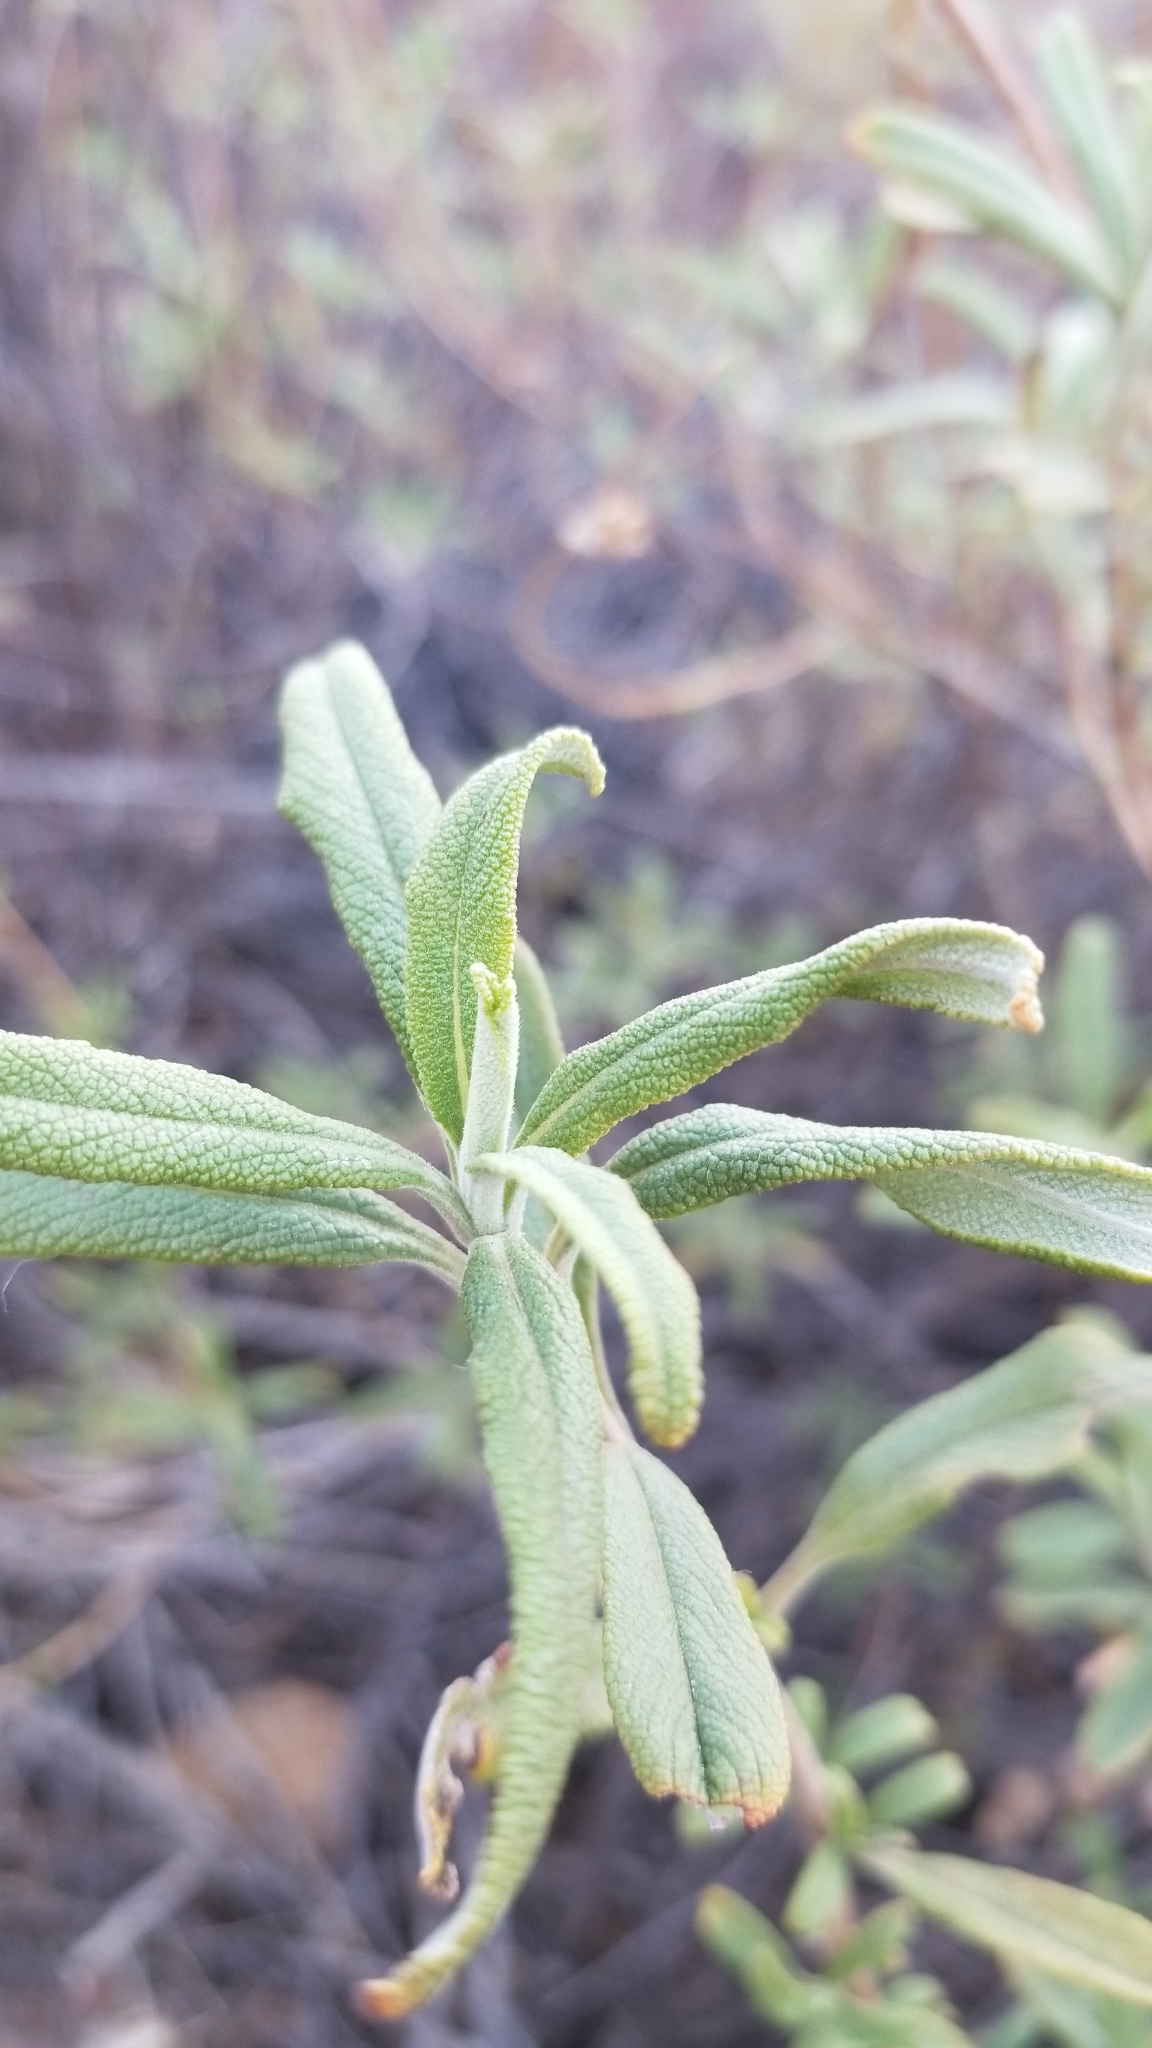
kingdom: Plantae
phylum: Tracheophyta
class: Magnoliopsida
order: Lamiales
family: Lamiaceae
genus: Salvia
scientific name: Salvia mellifera
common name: Black sage
